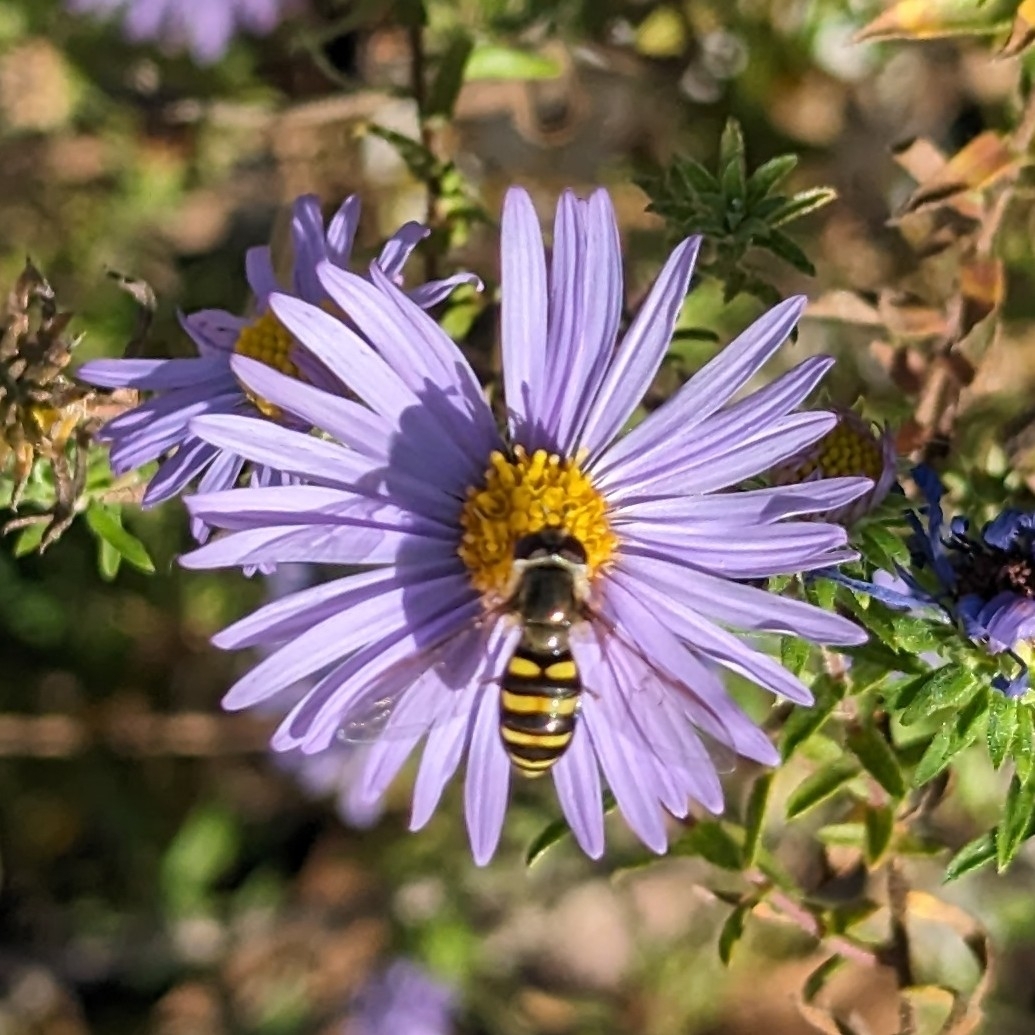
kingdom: Animalia
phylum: Arthropoda
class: Insecta
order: Diptera
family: Syrphidae
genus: Eupeodes
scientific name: Eupeodes
